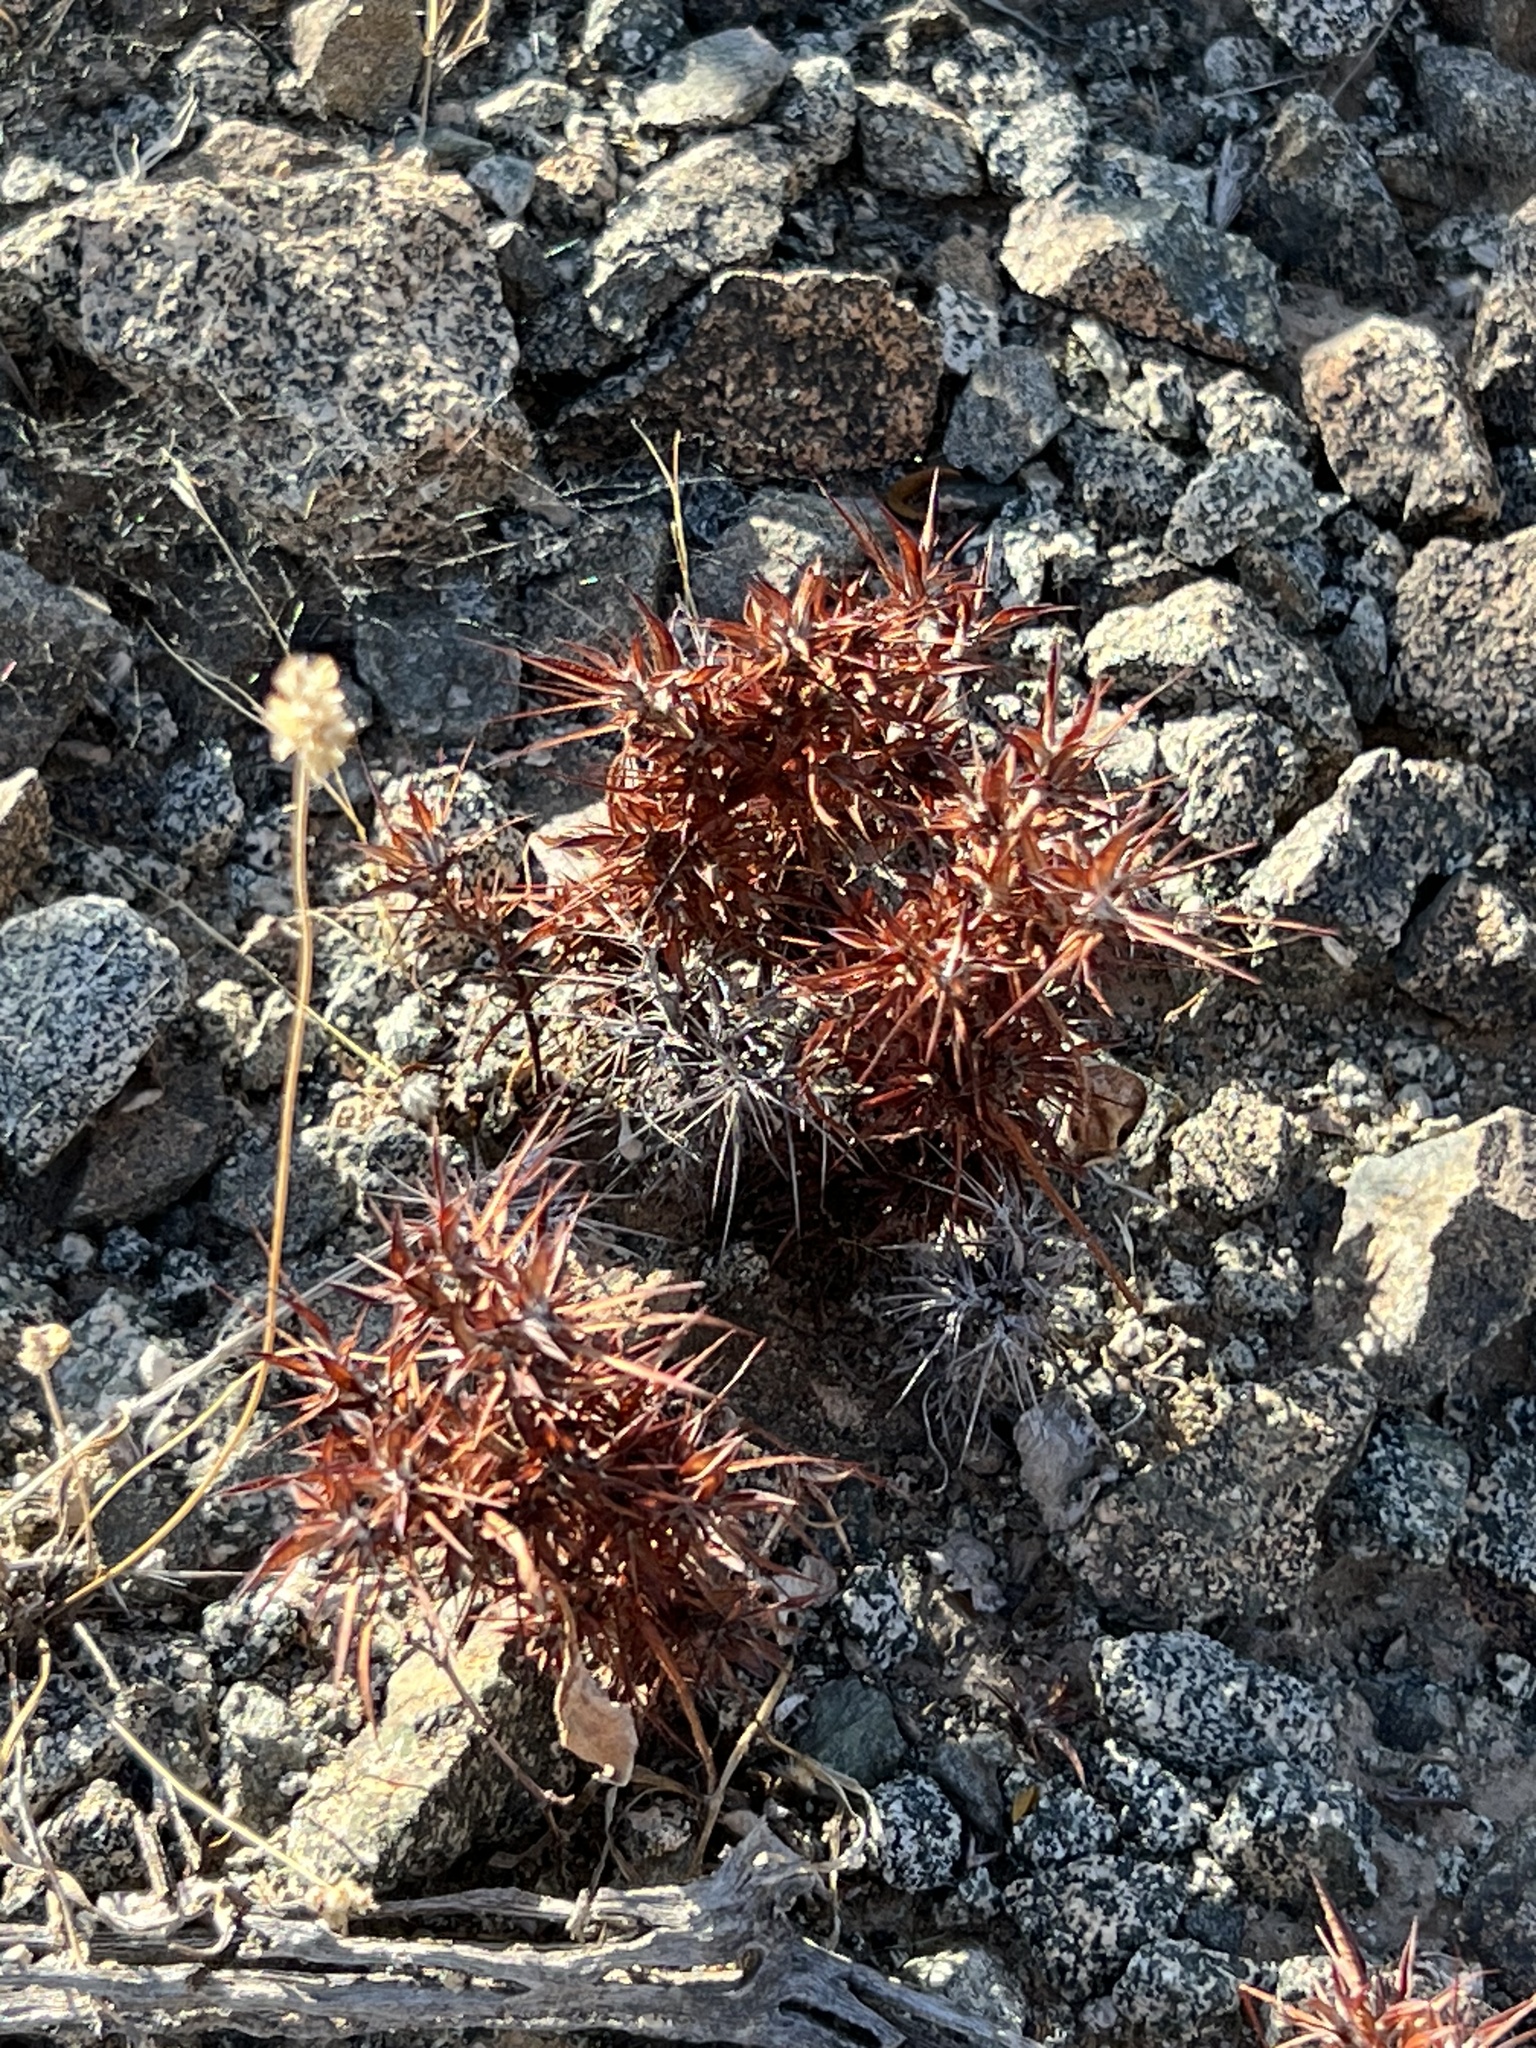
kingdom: Plantae
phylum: Tracheophyta
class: Magnoliopsida
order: Caryophyllales
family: Polygonaceae
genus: Chorizanthe
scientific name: Chorizanthe rigida
